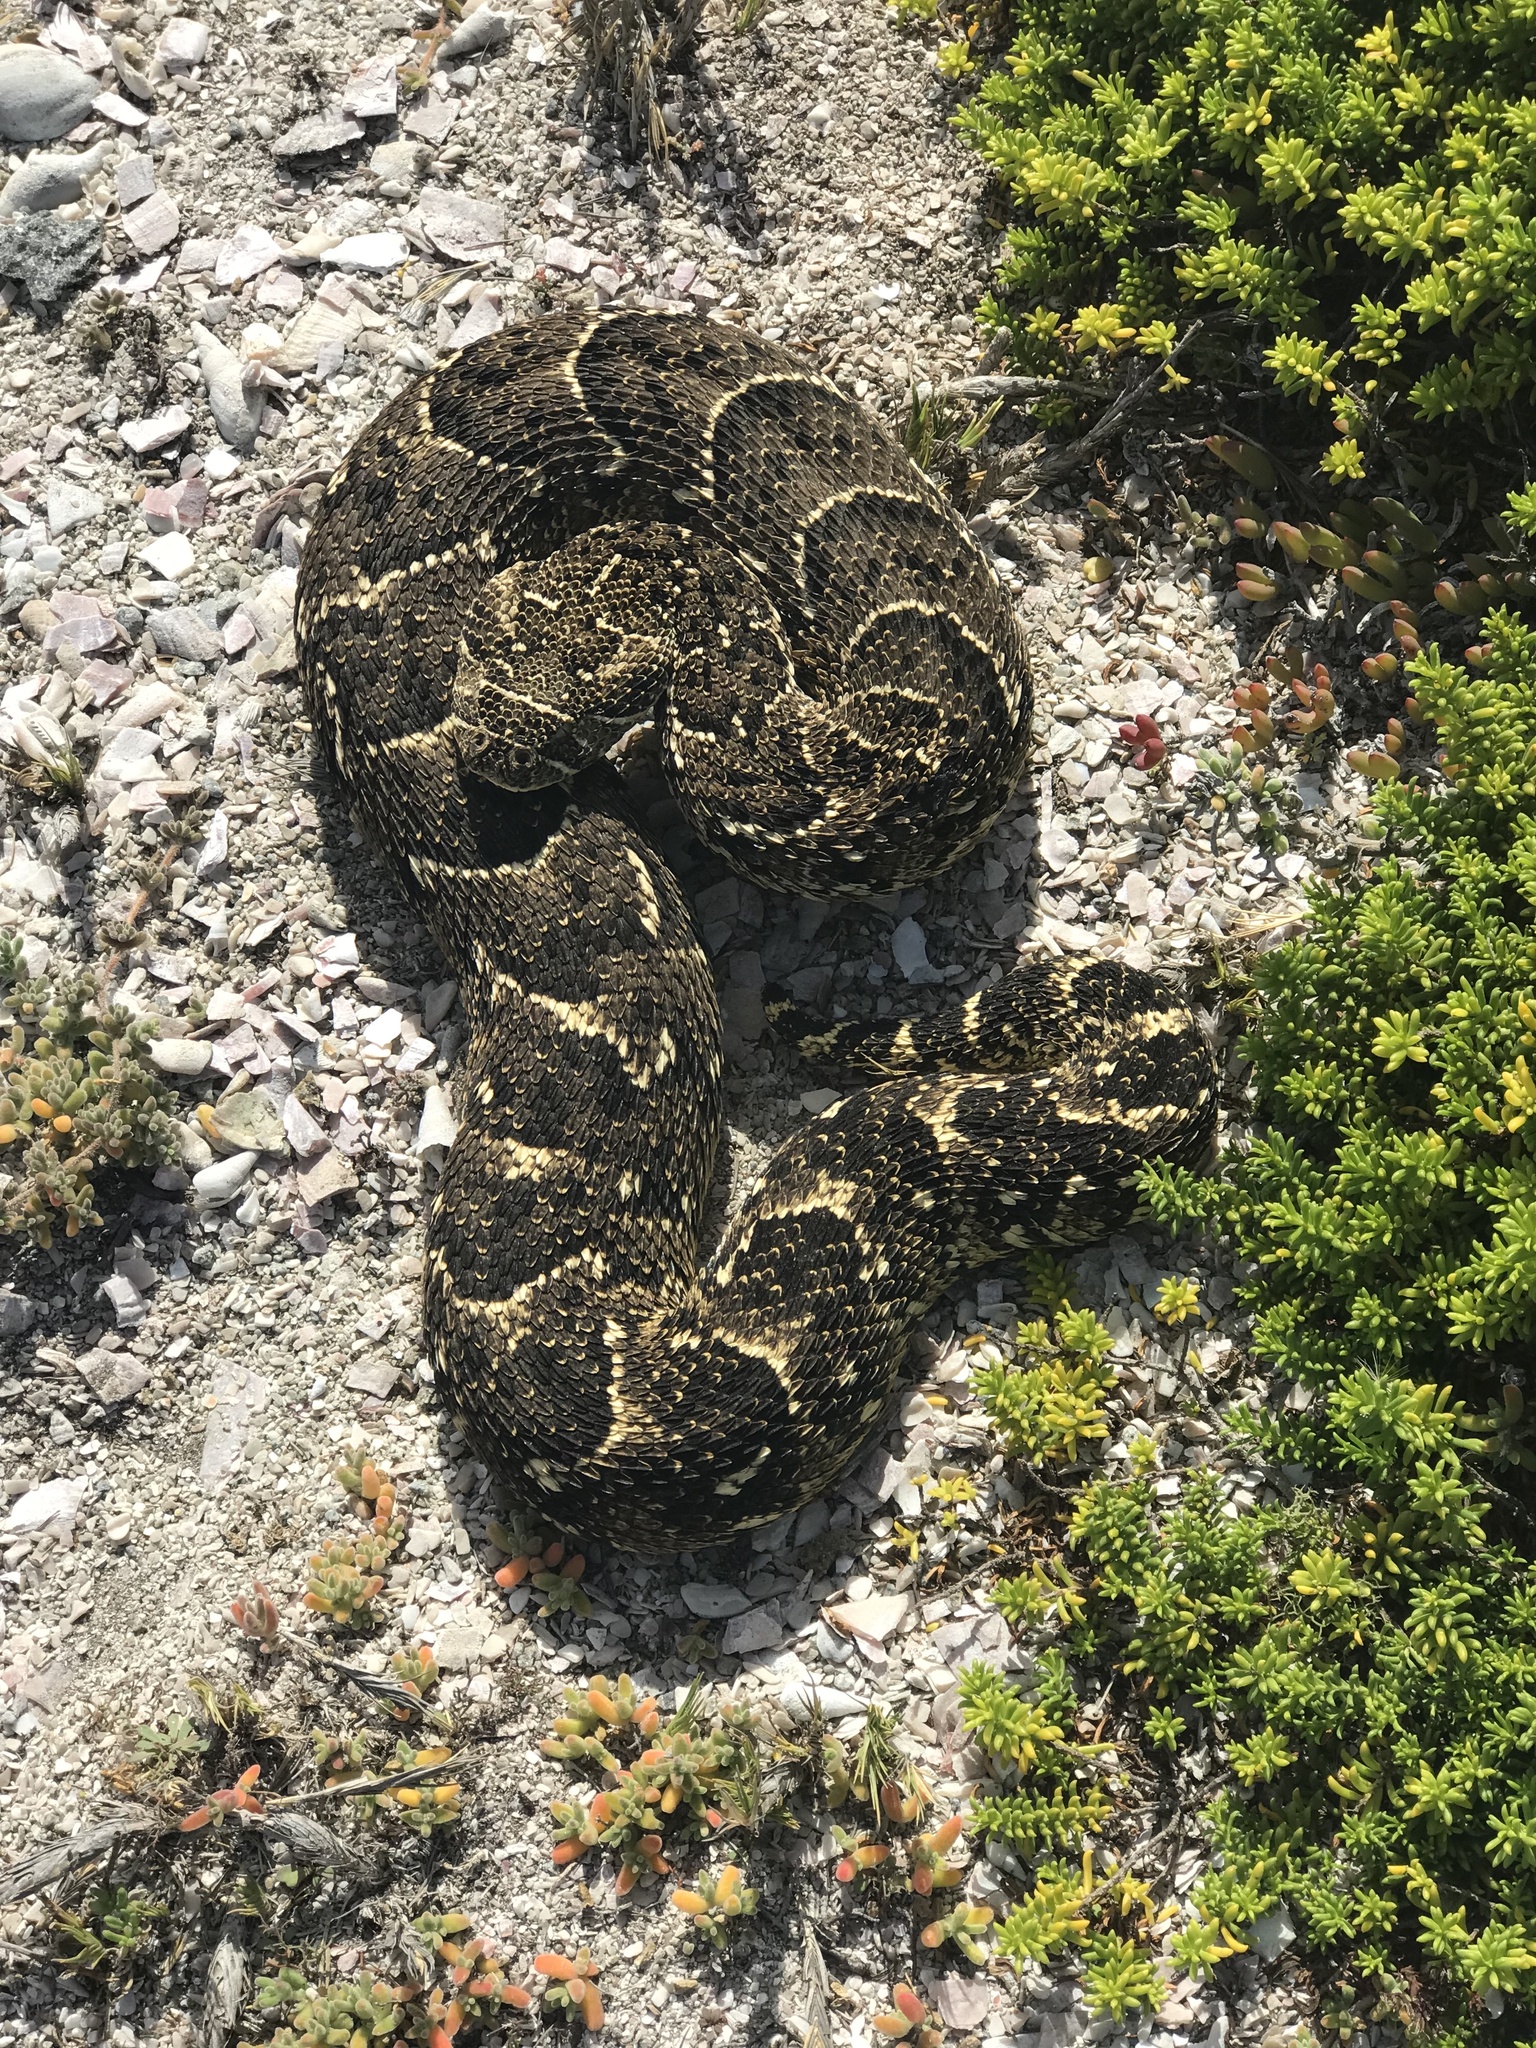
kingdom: Animalia
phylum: Chordata
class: Squamata
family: Viperidae
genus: Bitis
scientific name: Bitis arietans
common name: Puff adder
